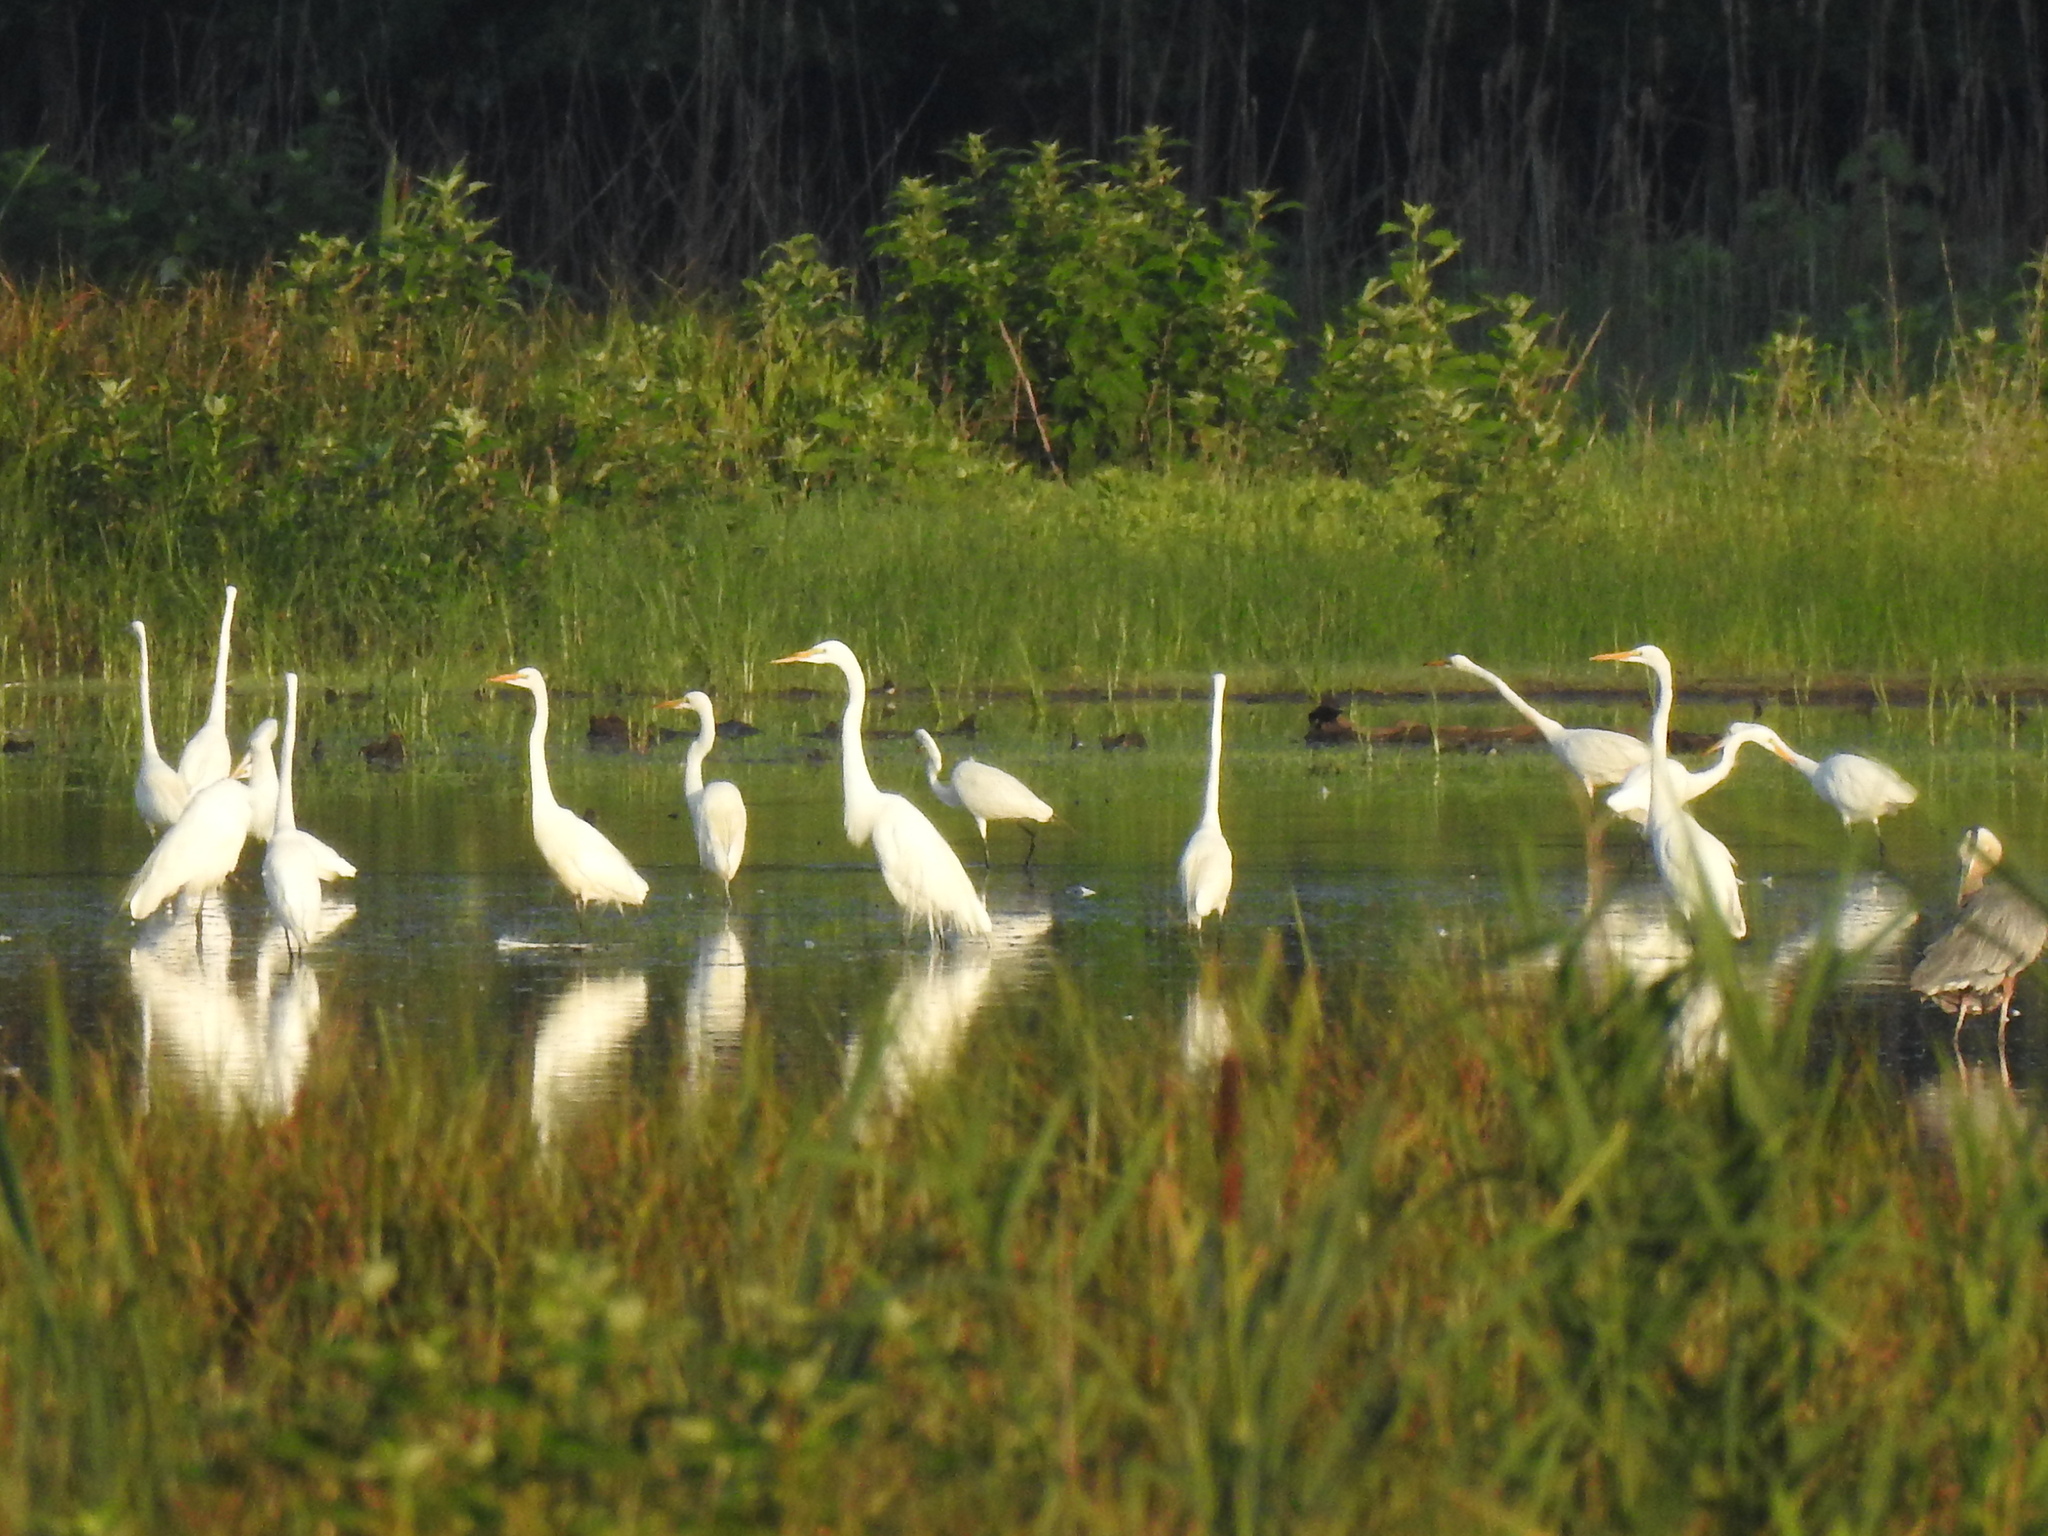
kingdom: Animalia
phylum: Chordata
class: Aves
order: Pelecaniformes
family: Ardeidae
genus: Ardea
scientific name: Ardea alba
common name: Great egret
